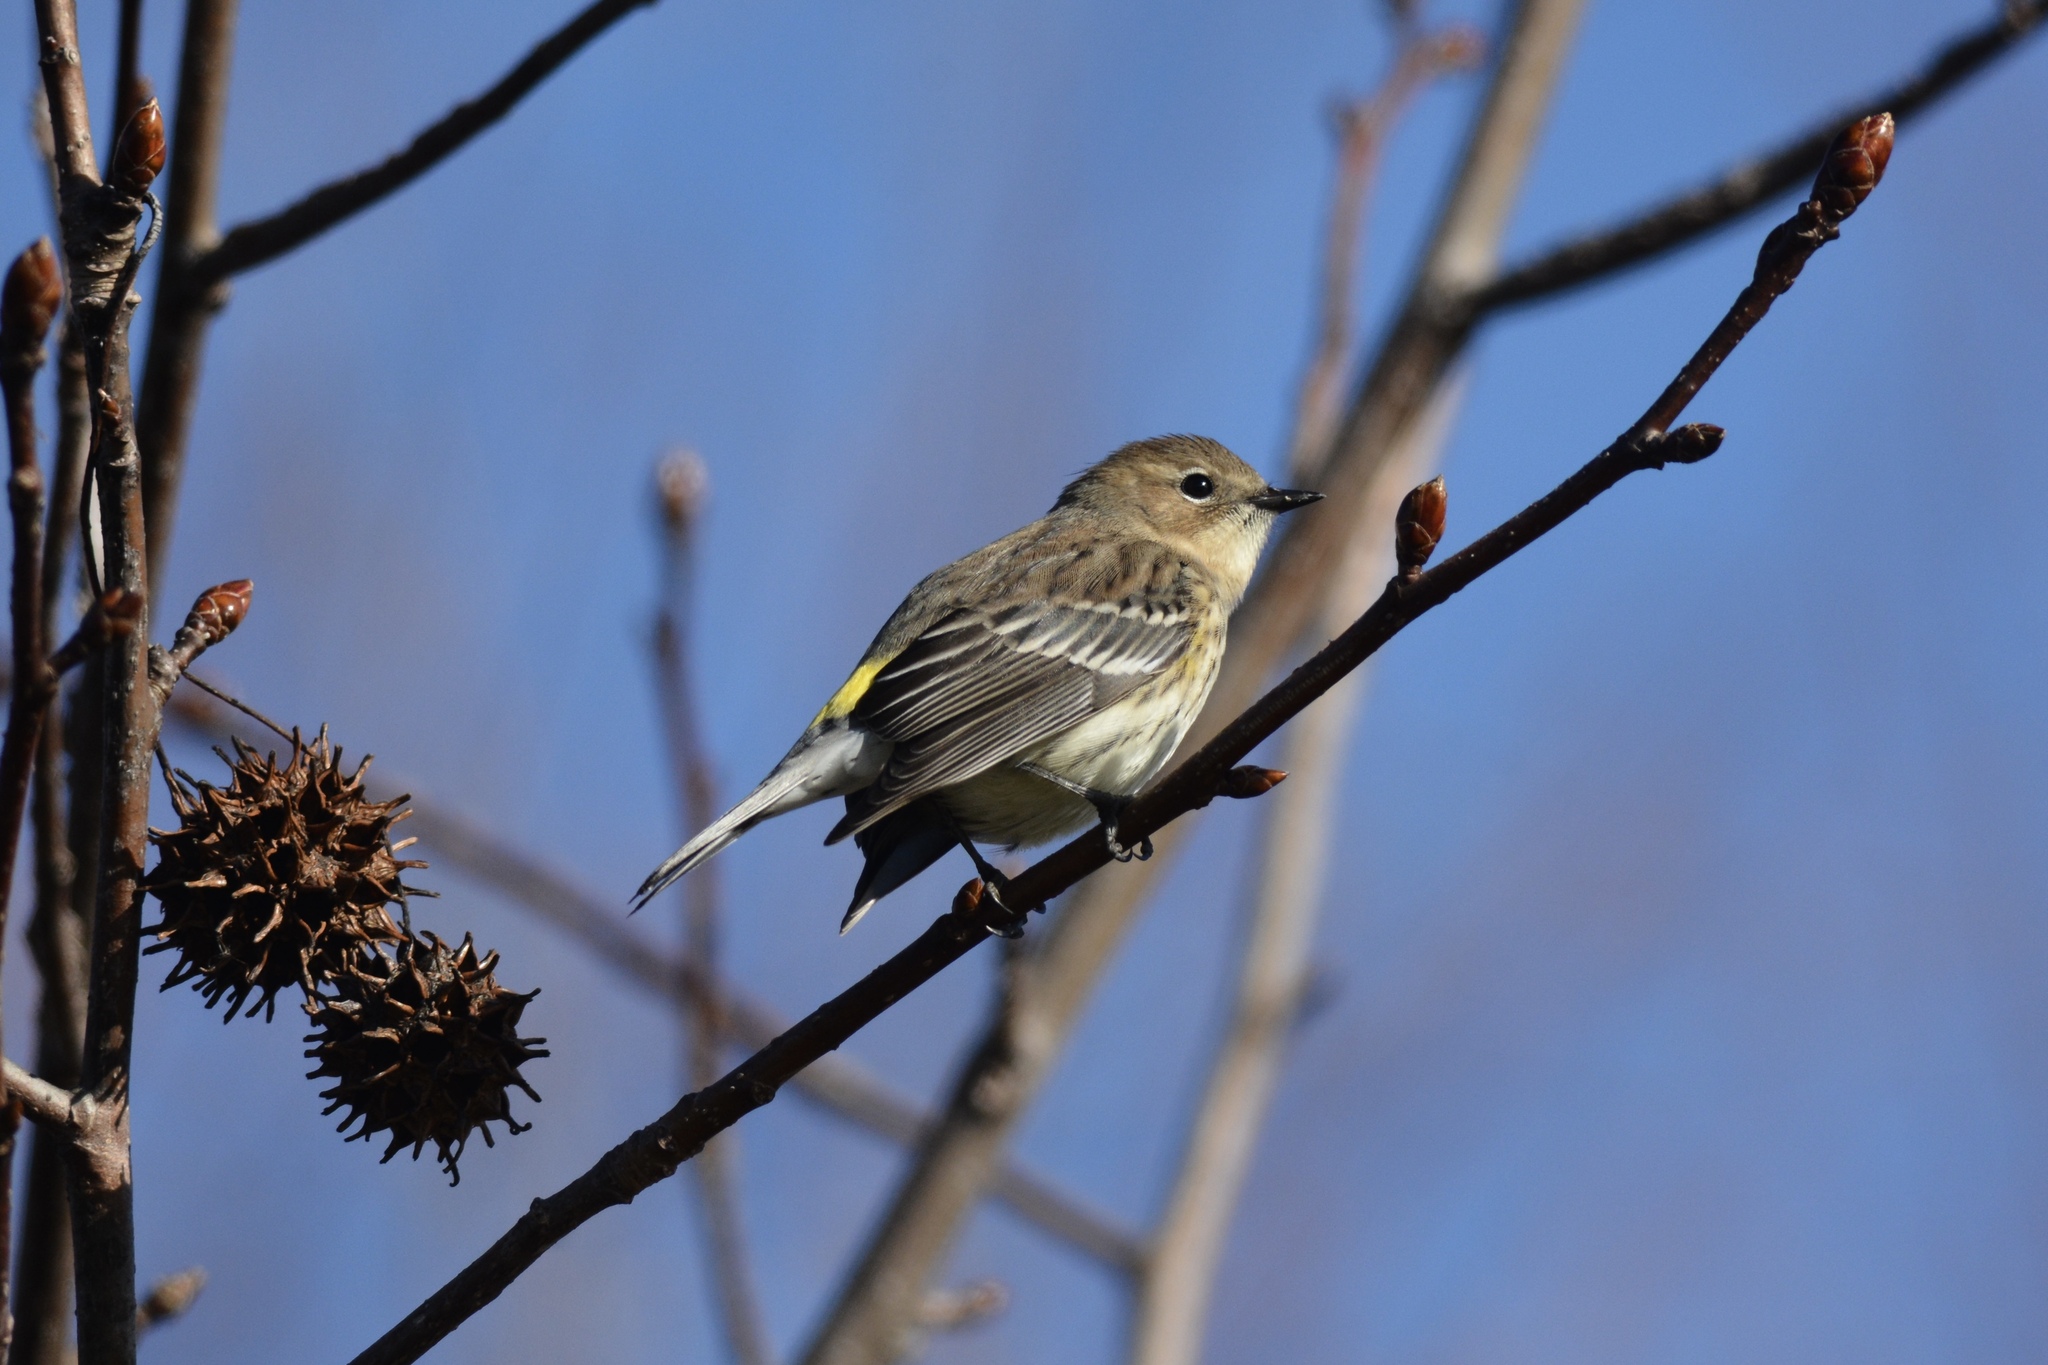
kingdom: Animalia
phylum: Chordata
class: Aves
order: Passeriformes
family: Parulidae
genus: Setophaga
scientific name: Setophaga coronata
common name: Myrtle warbler
